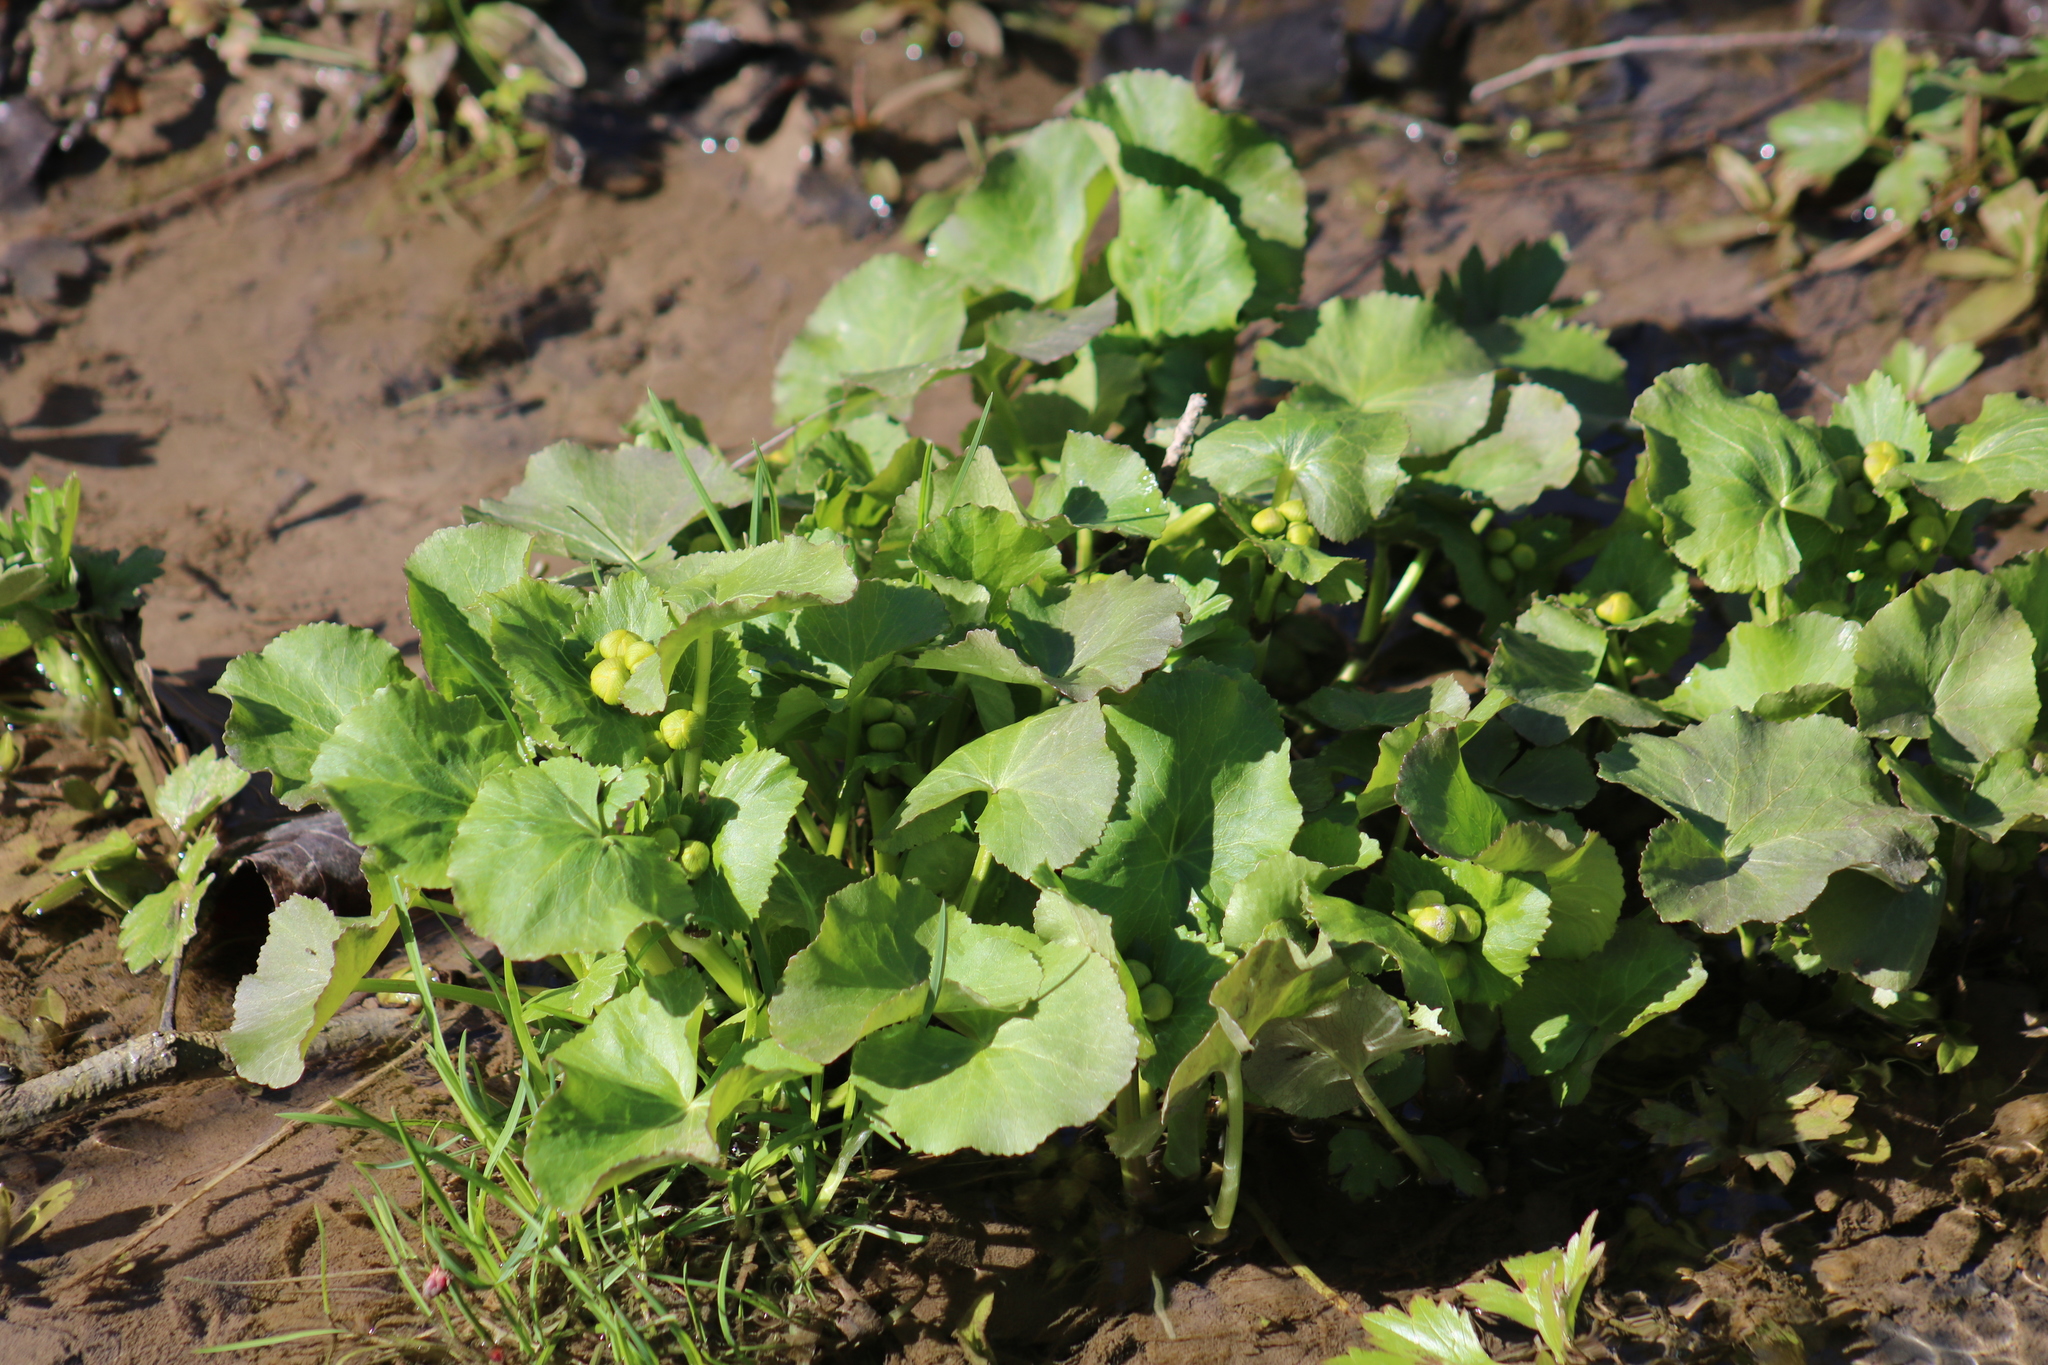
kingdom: Plantae
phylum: Tracheophyta
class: Magnoliopsida
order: Ranunculales
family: Ranunculaceae
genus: Caltha
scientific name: Caltha palustris
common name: Marsh marigold
